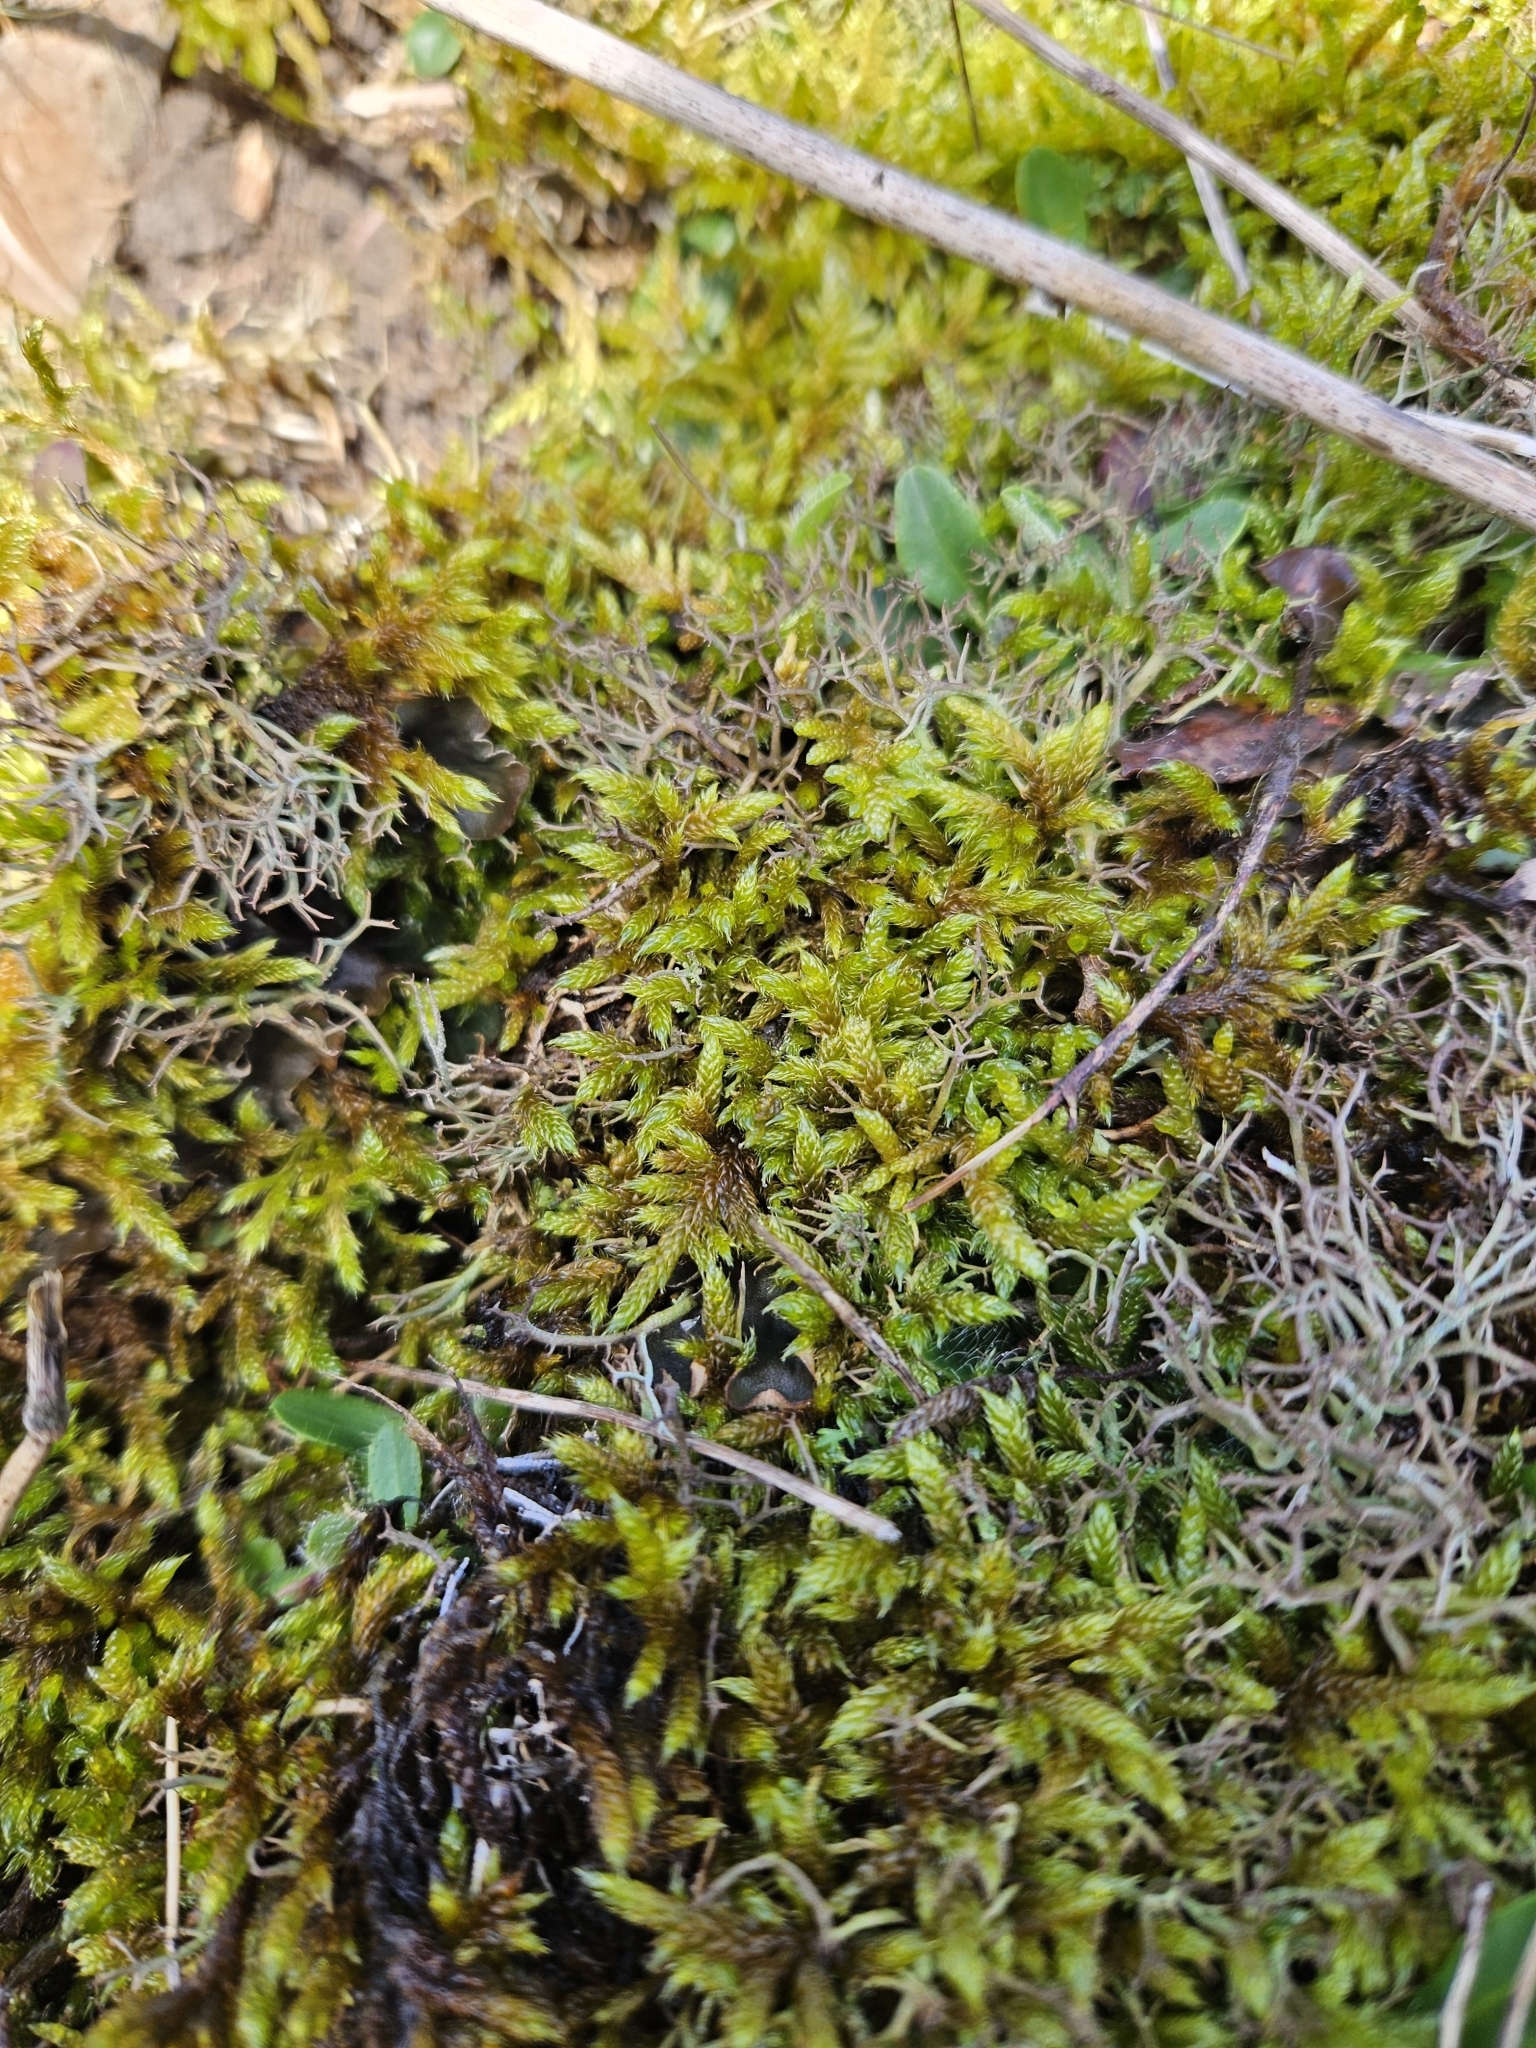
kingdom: Plantae
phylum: Bryophyta
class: Bryopsida
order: Hypnales
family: Hypnaceae
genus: Hypnum
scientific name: Hypnum cupressiforme
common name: Cypress-leaved plait-moss
